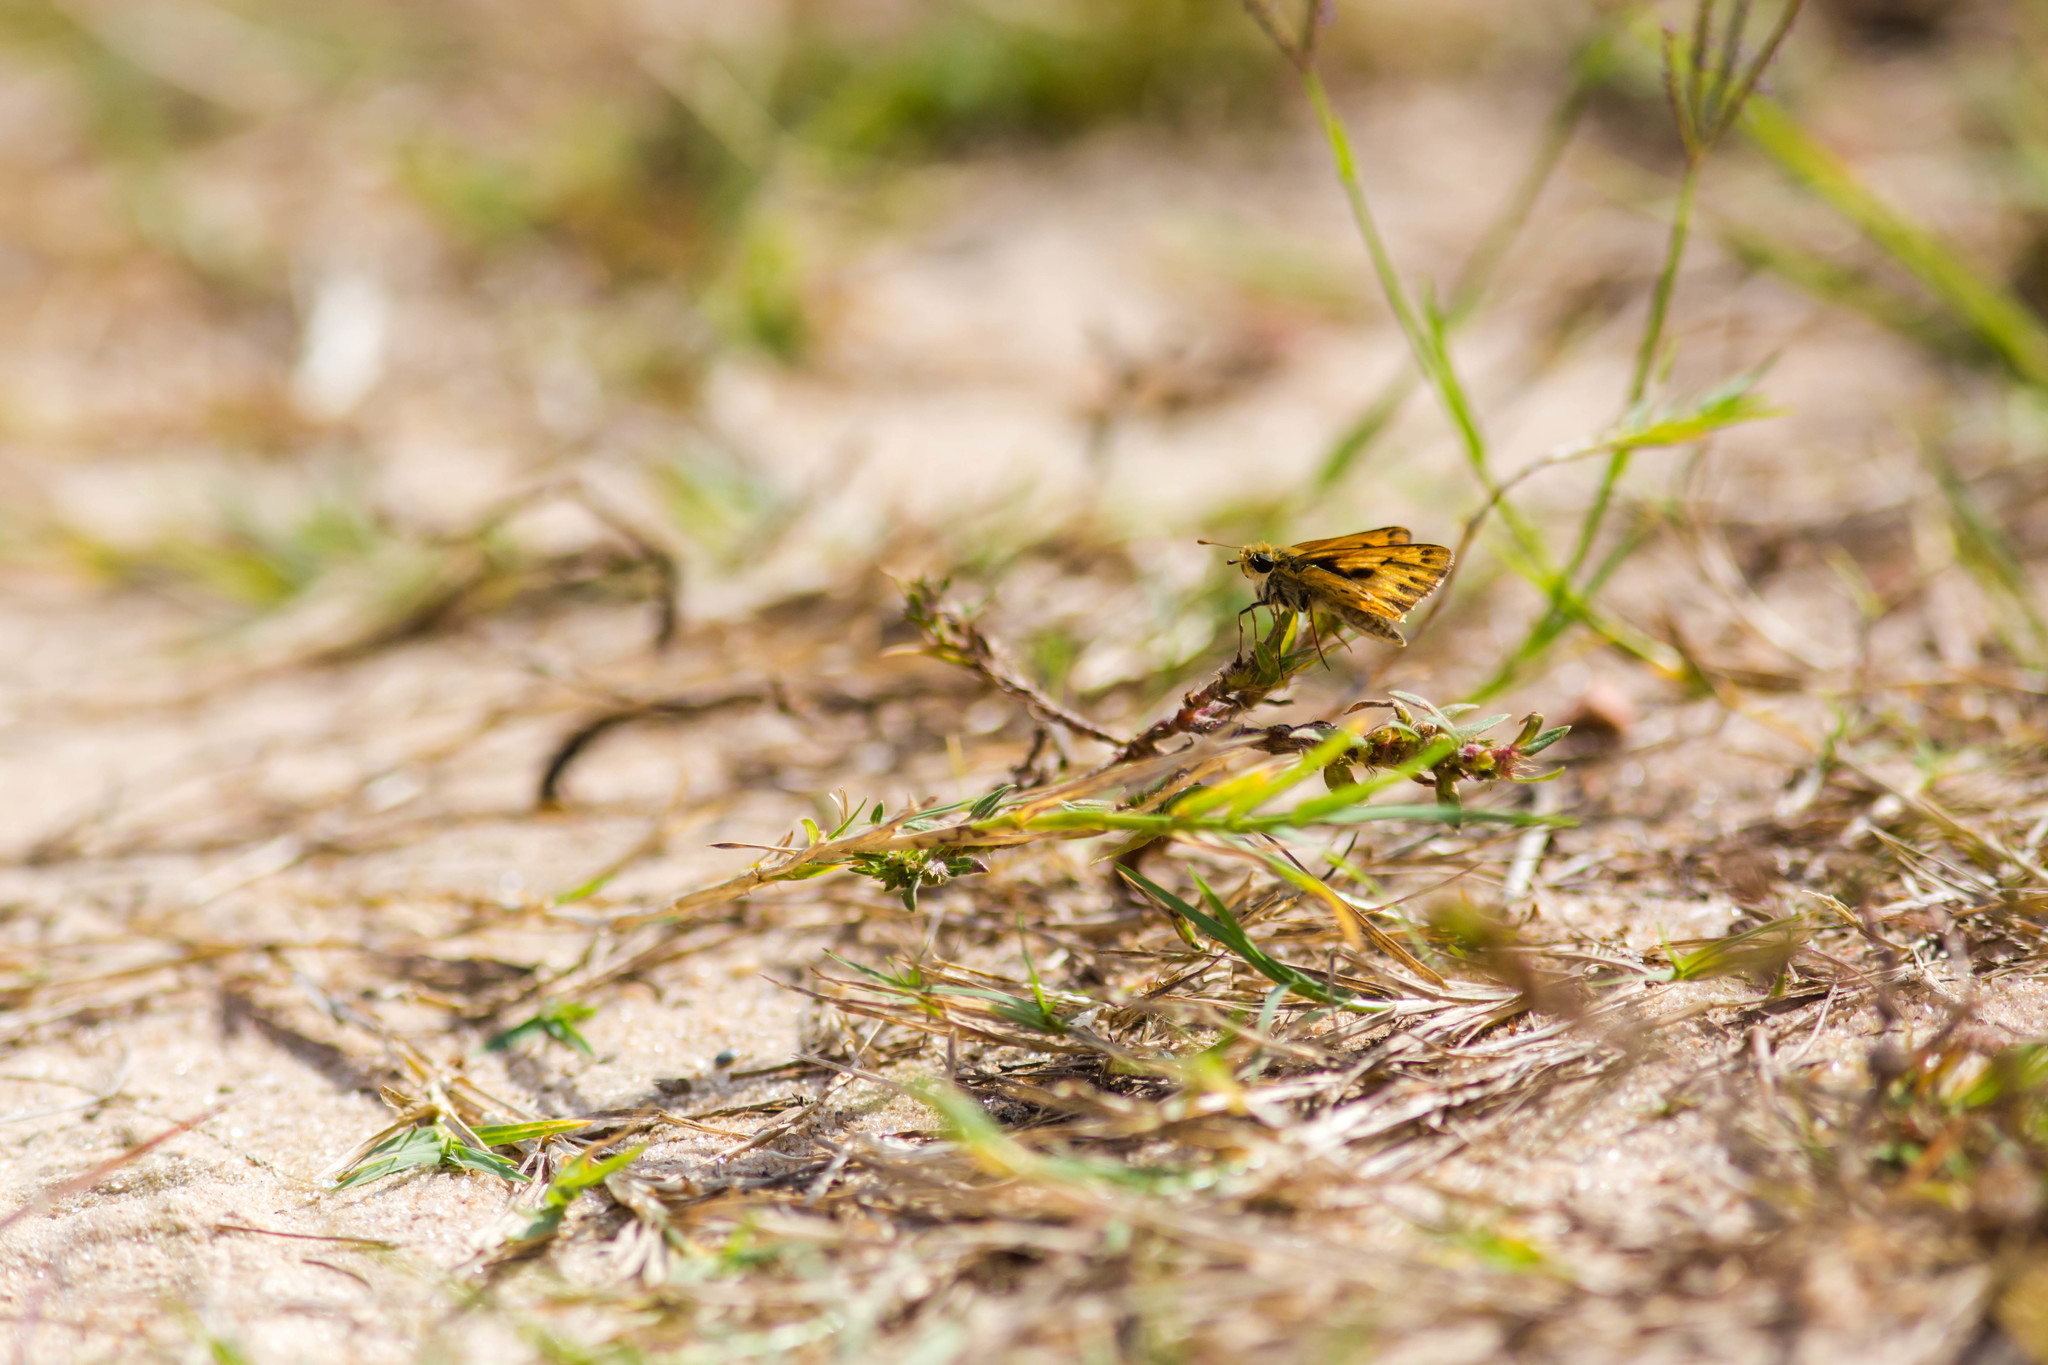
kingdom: Animalia
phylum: Arthropoda
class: Insecta
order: Lepidoptera
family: Hesperiidae
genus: Hylephila
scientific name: Hylephila phyleus
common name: Fiery skipper
